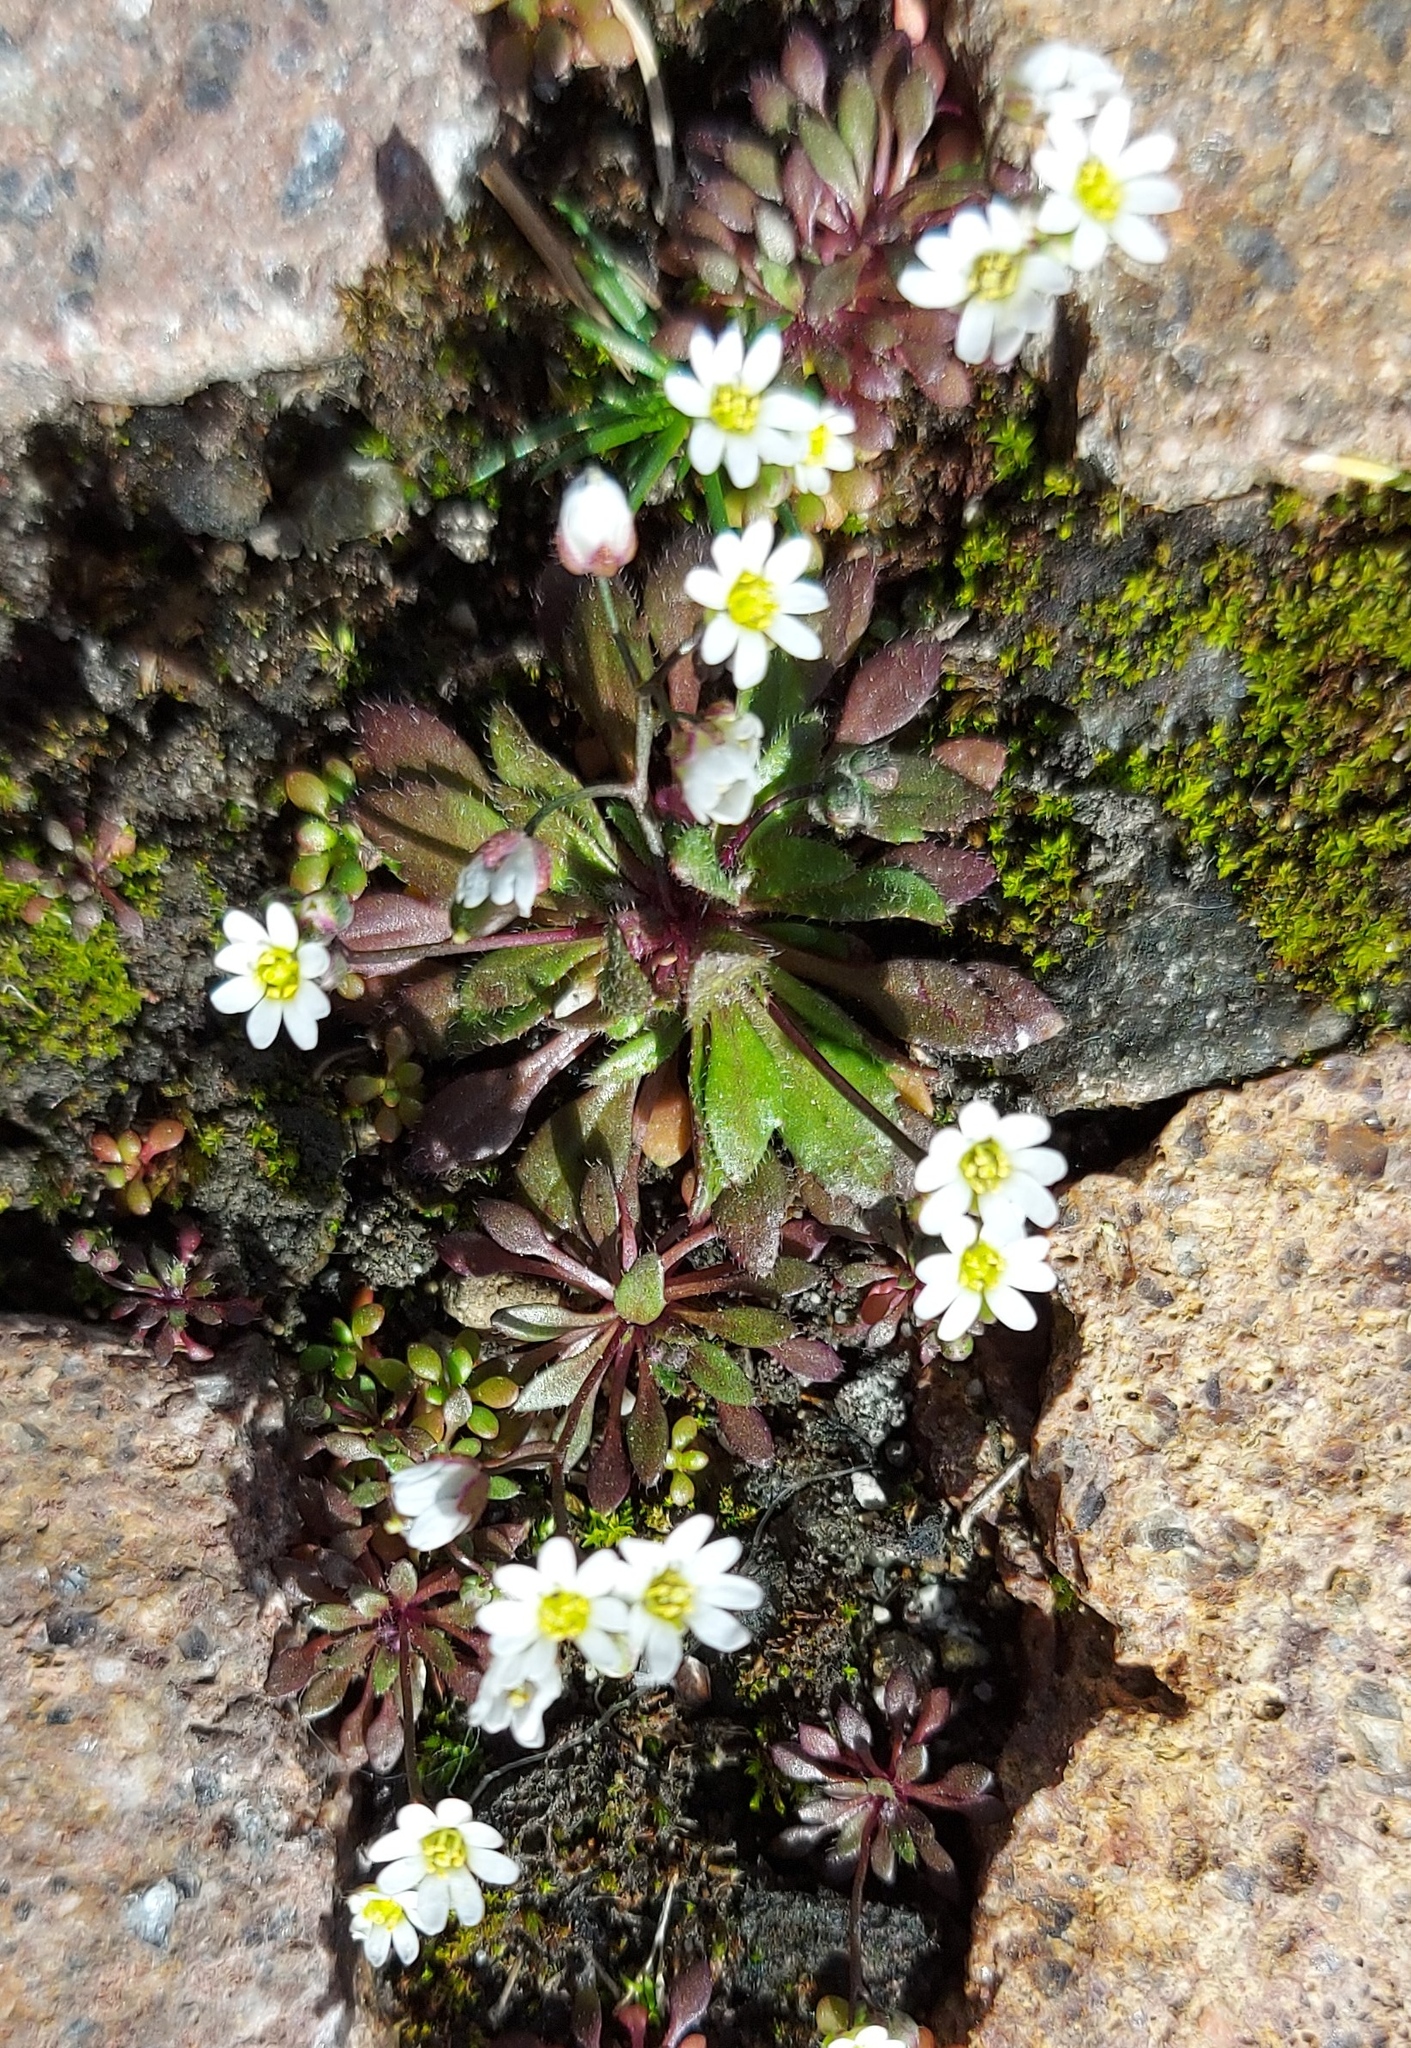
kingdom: Plantae
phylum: Tracheophyta
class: Magnoliopsida
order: Brassicales
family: Brassicaceae
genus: Draba
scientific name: Draba verna
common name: Spring draba
